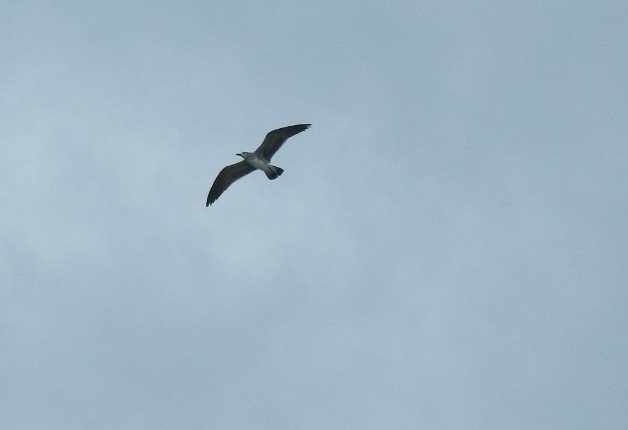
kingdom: Animalia
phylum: Chordata
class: Aves
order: Charadriiformes
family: Laridae
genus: Leucophaeus
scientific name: Leucophaeus atricilla
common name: Laughing gull
